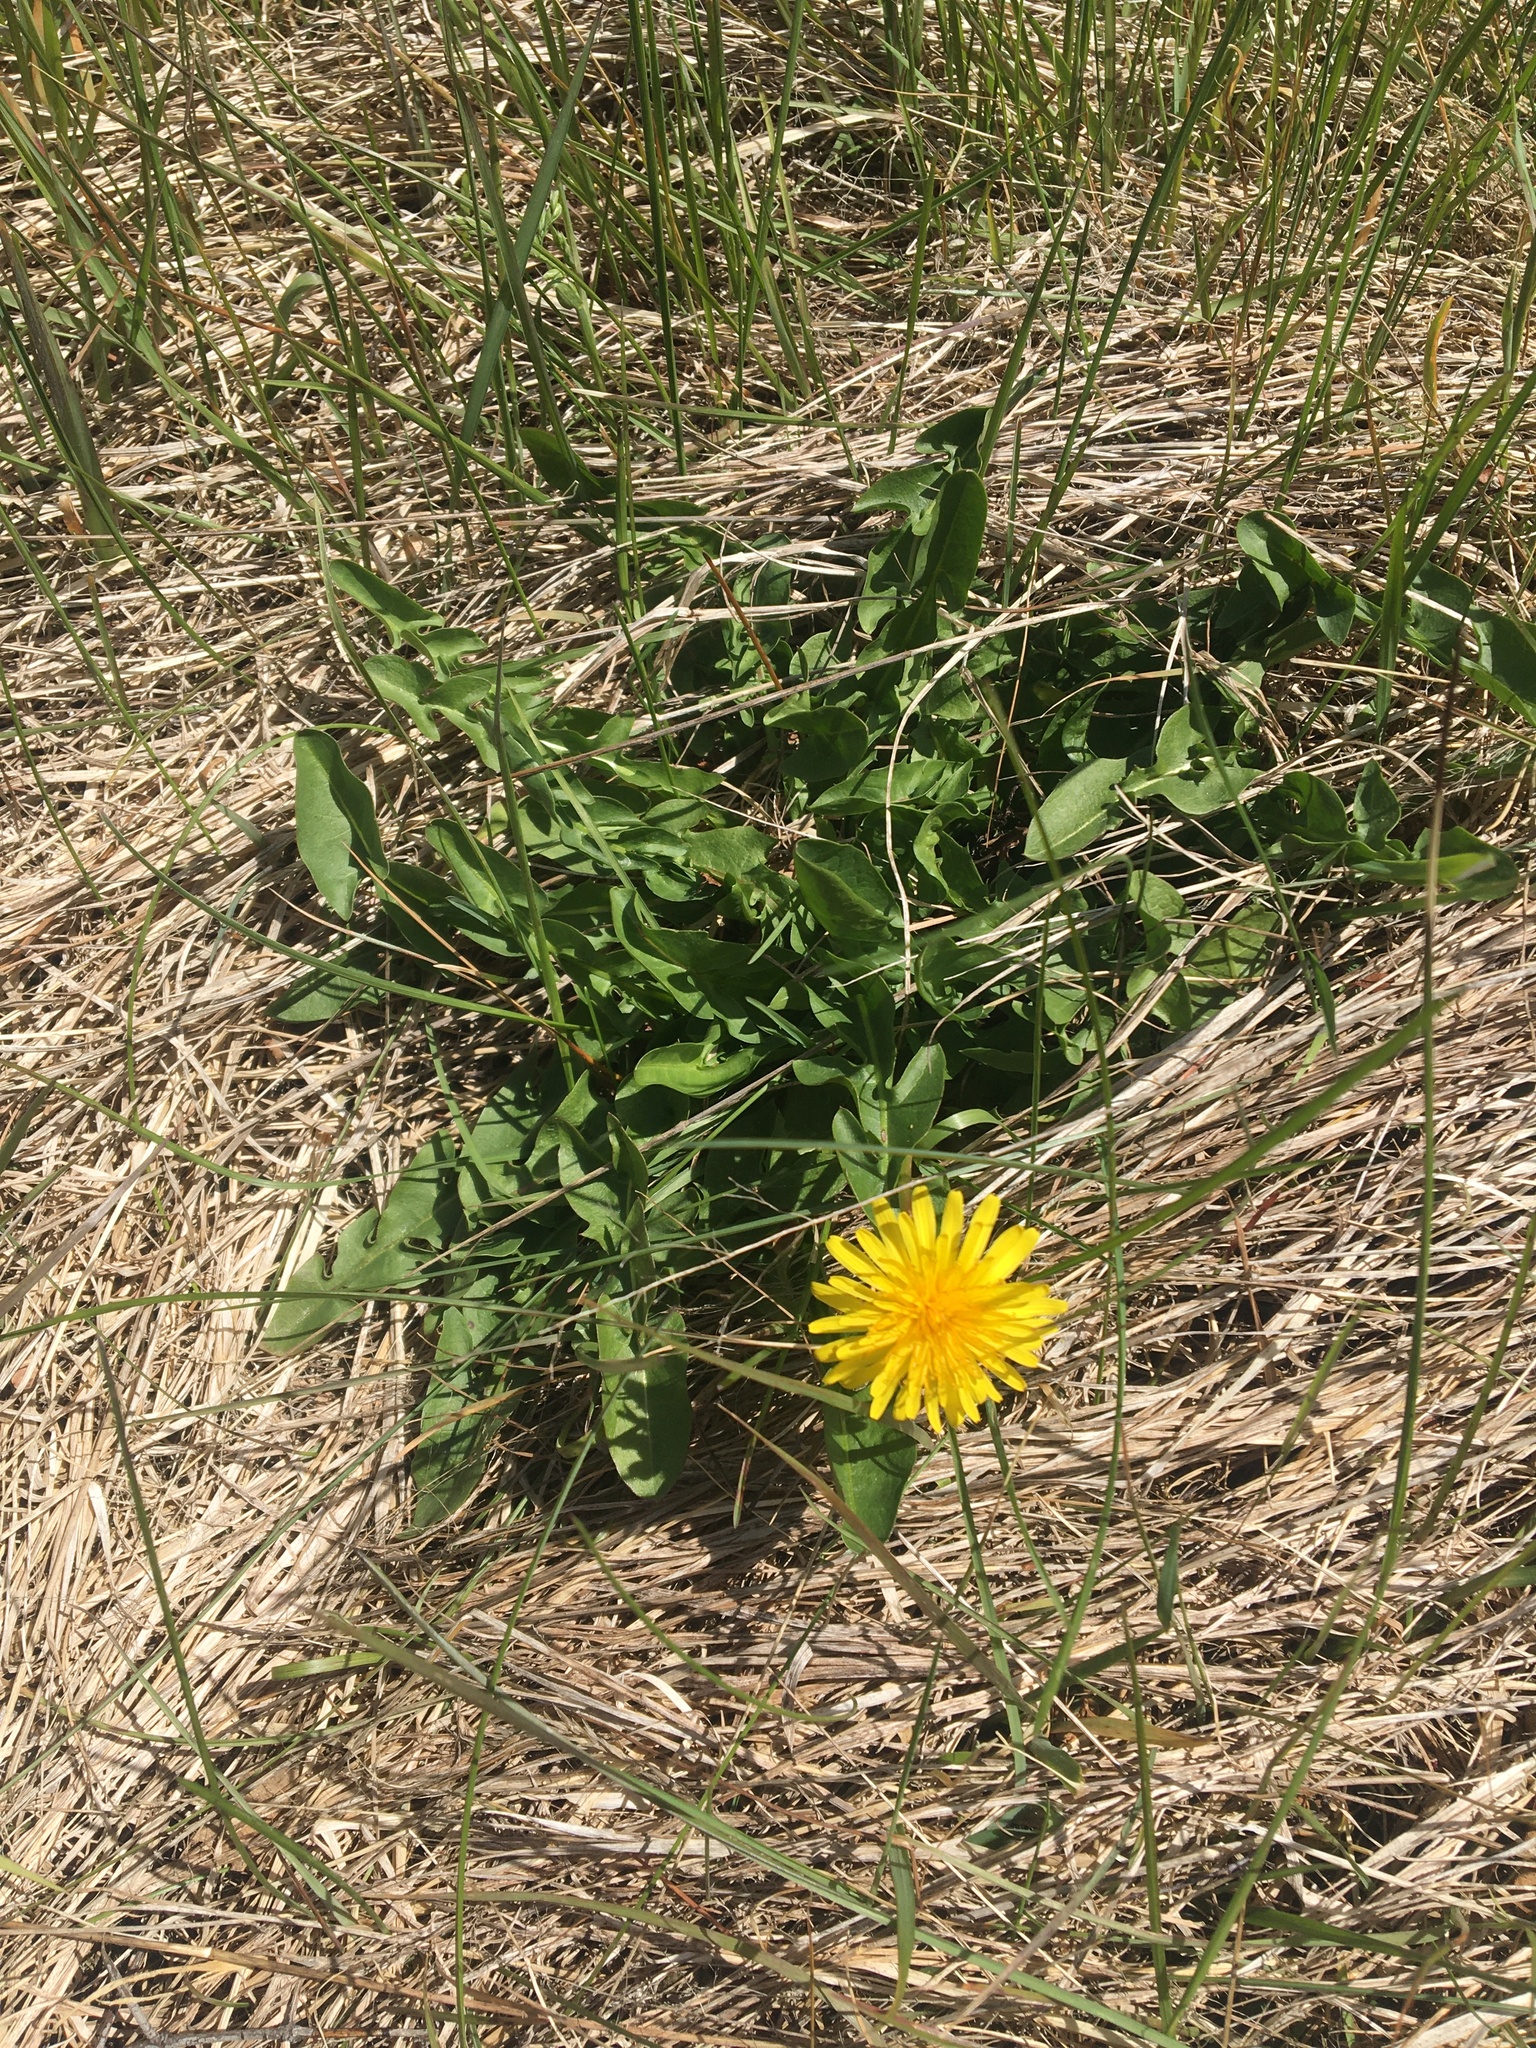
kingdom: Plantae
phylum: Tracheophyta
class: Magnoliopsida
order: Asterales
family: Asteraceae
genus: Taraxacum
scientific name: Taraxacum officinale
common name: Common dandelion
